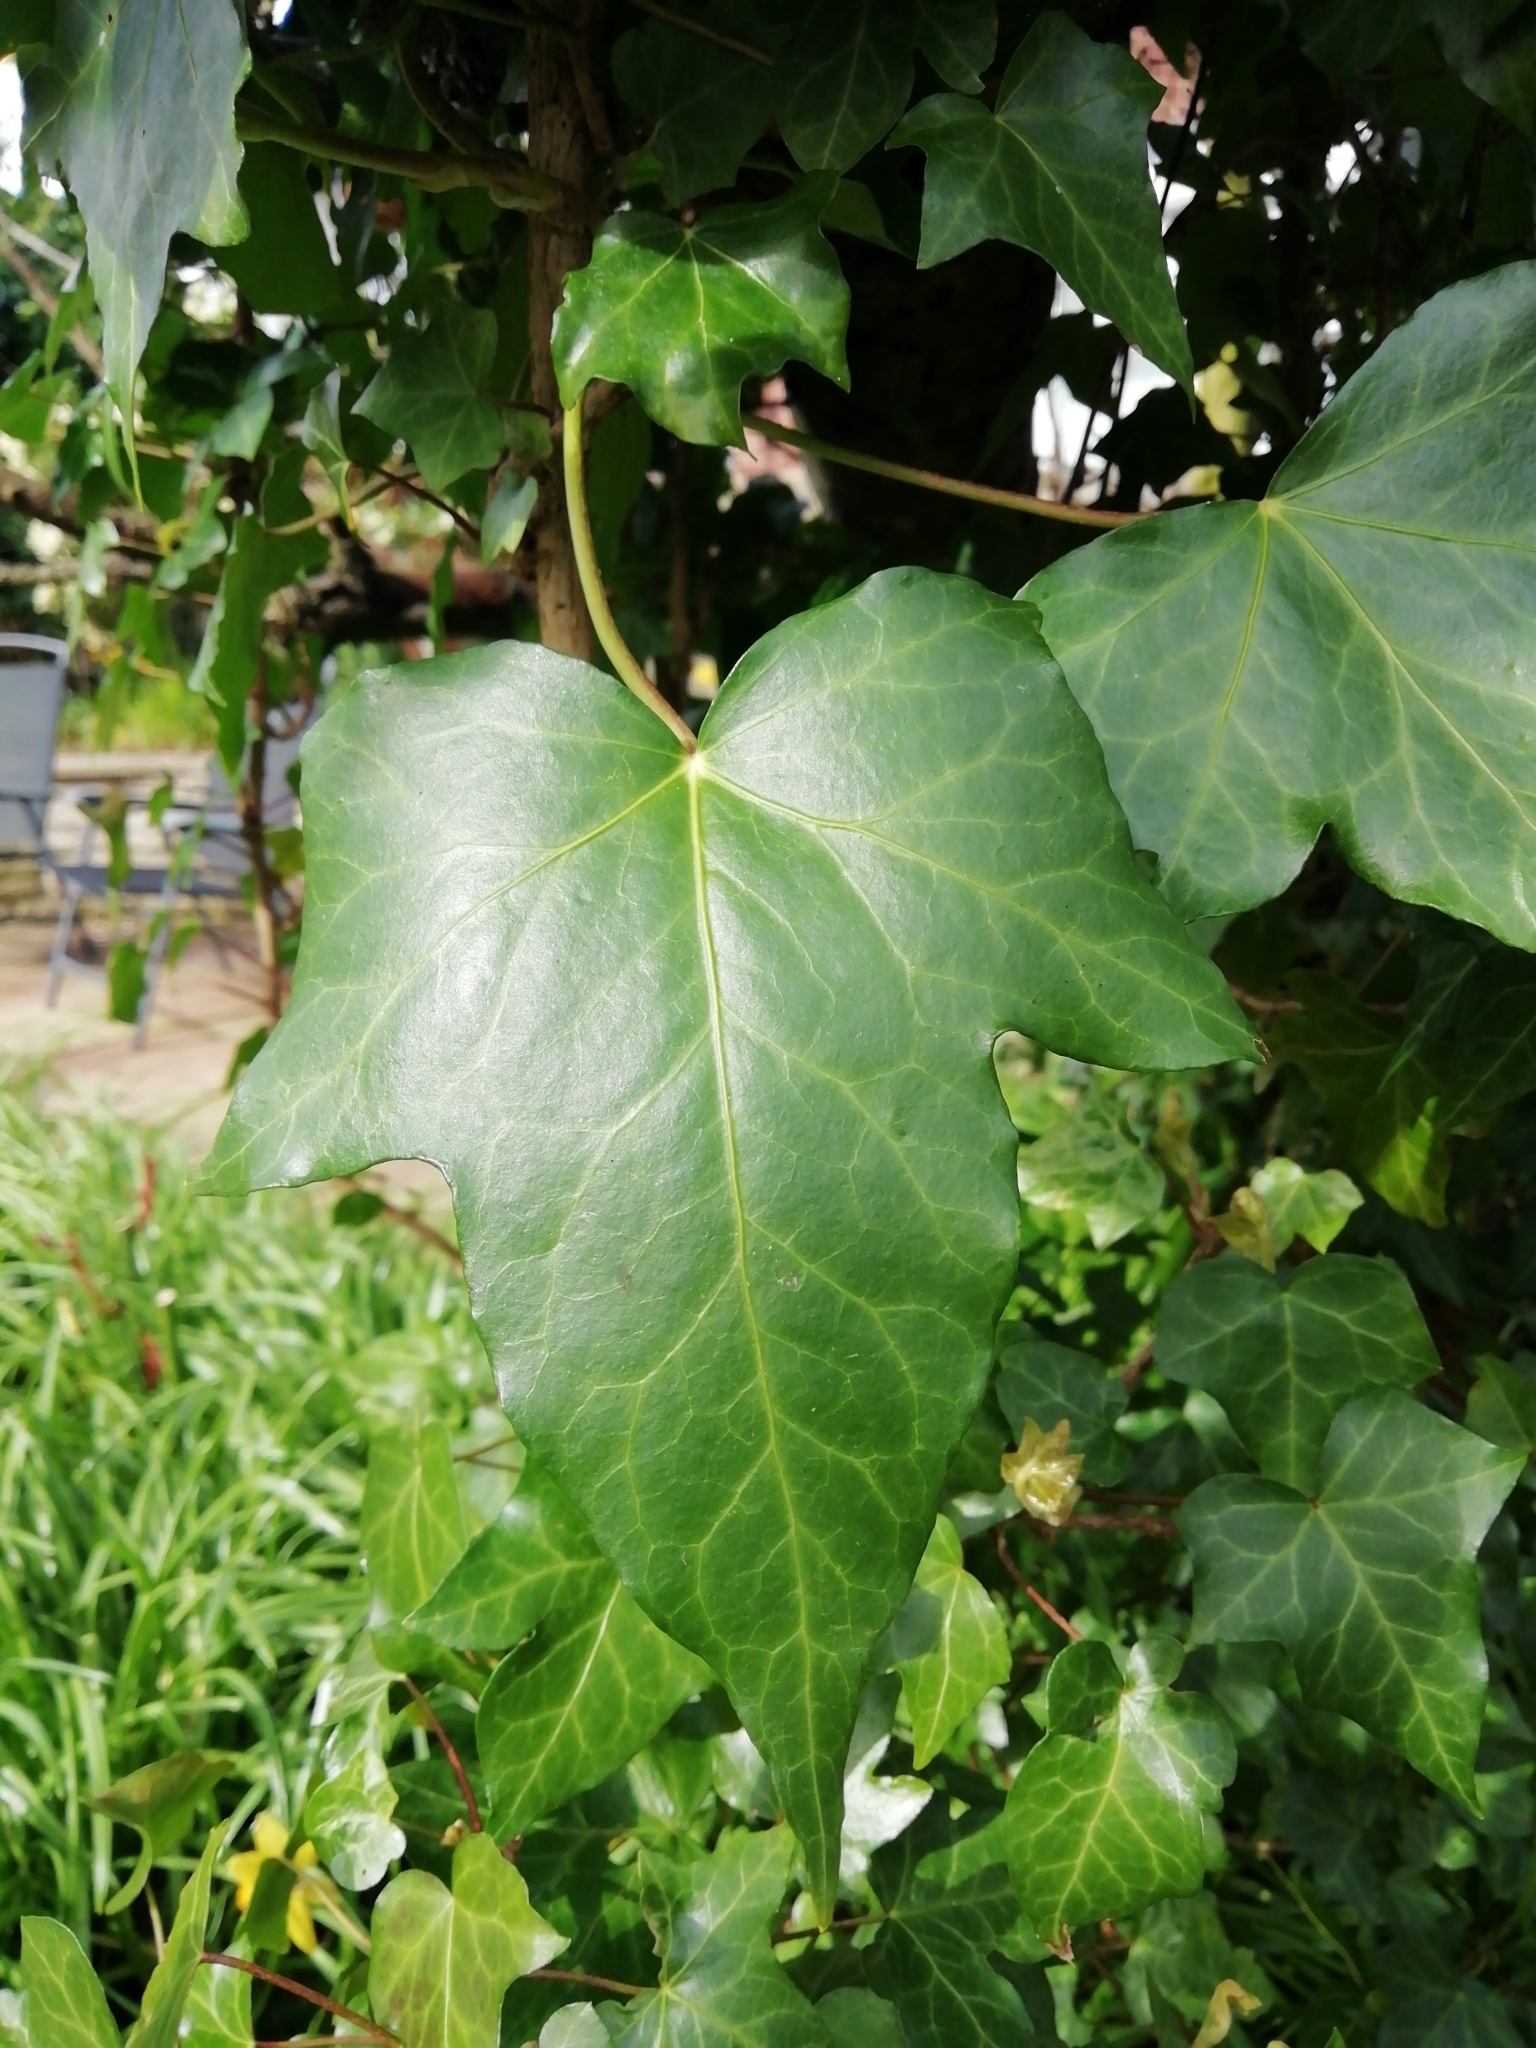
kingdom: Plantae
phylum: Tracheophyta
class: Magnoliopsida
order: Apiales
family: Araliaceae
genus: Hedera
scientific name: Hedera helix
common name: Ivy
